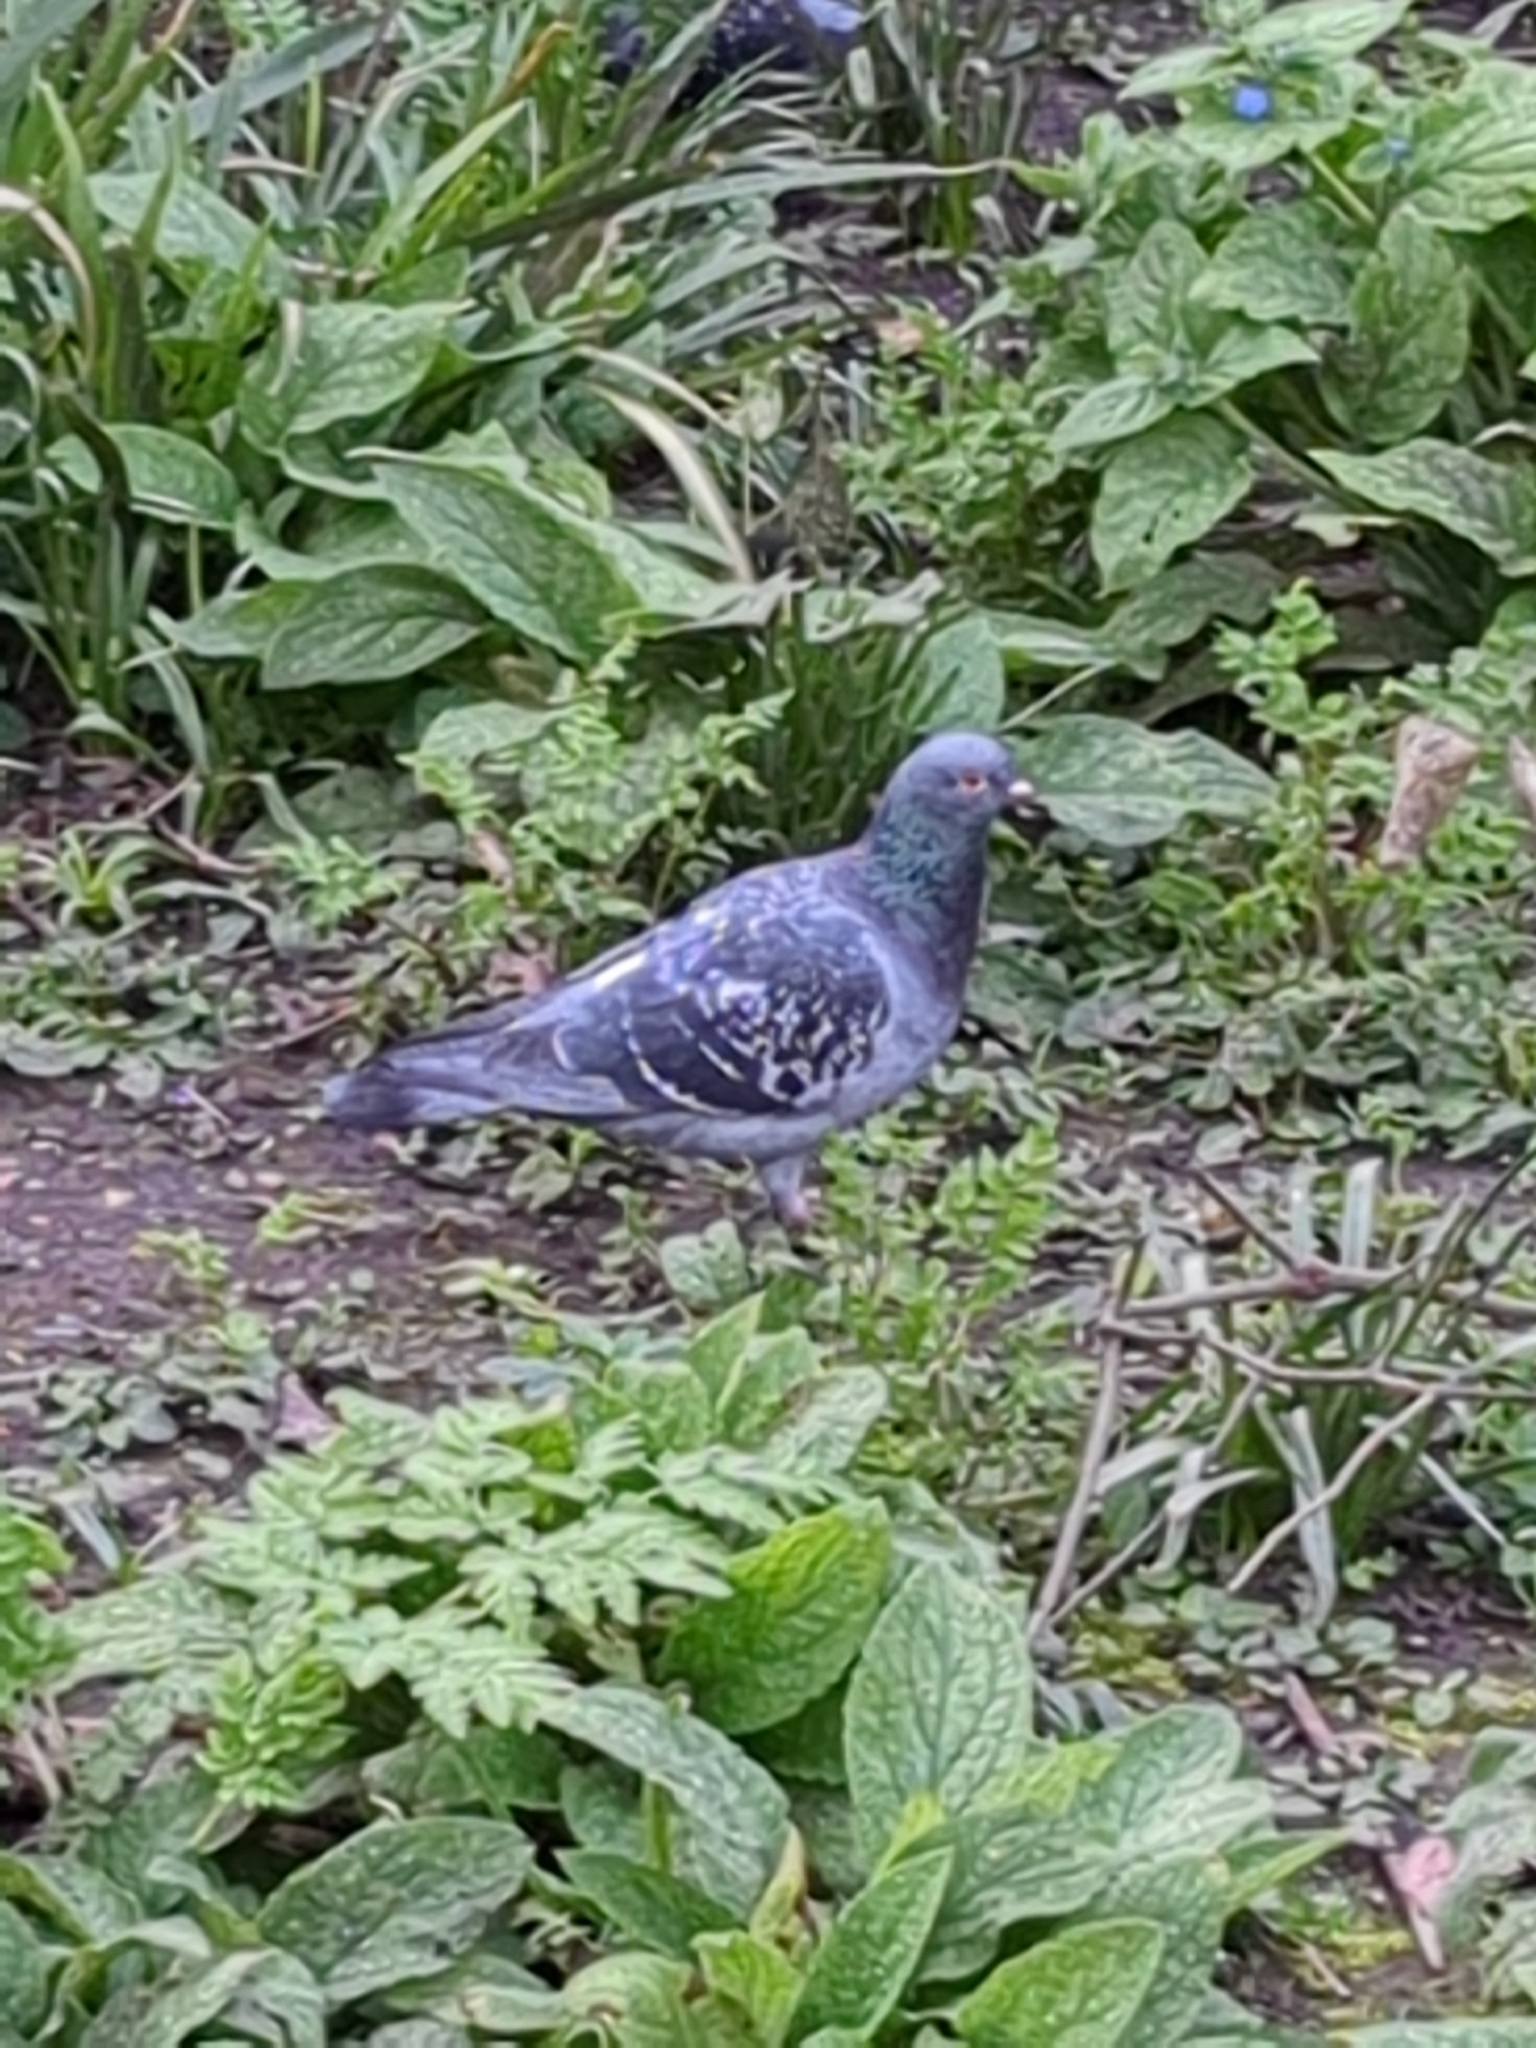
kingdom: Animalia
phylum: Chordata
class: Aves
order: Columbiformes
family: Columbidae
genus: Columba
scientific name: Columba livia
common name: Rock pigeon
